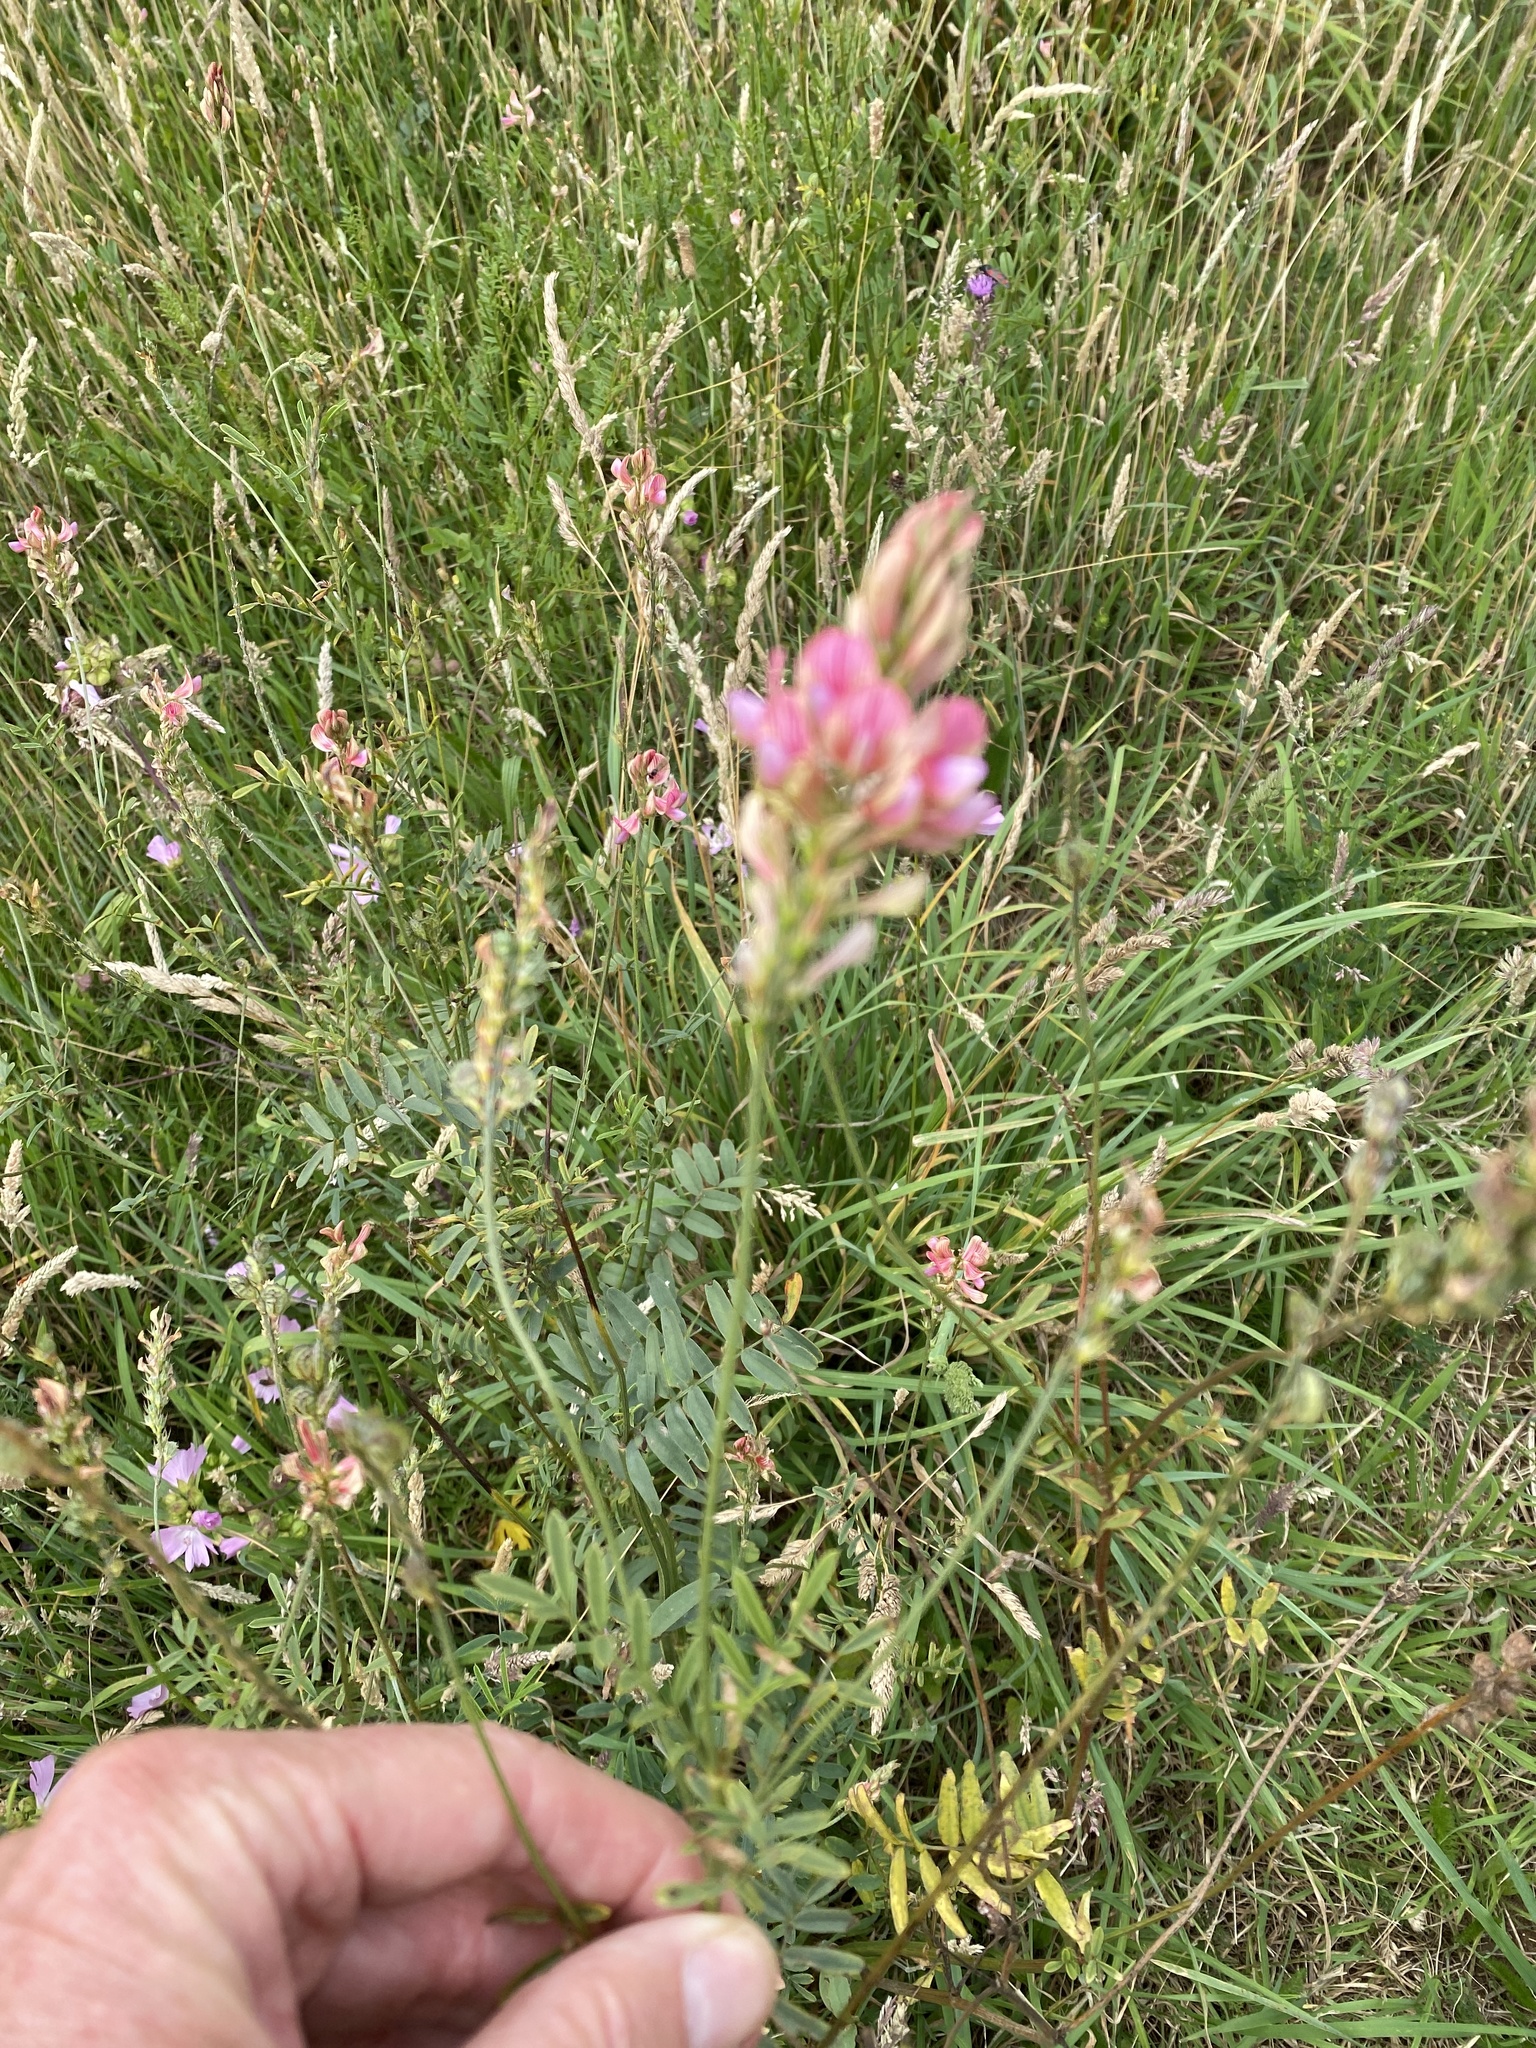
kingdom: Plantae
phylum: Tracheophyta
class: Magnoliopsida
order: Fabales
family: Fabaceae
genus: Onobrychis
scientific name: Onobrychis viciifolia
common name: Sainfoin
